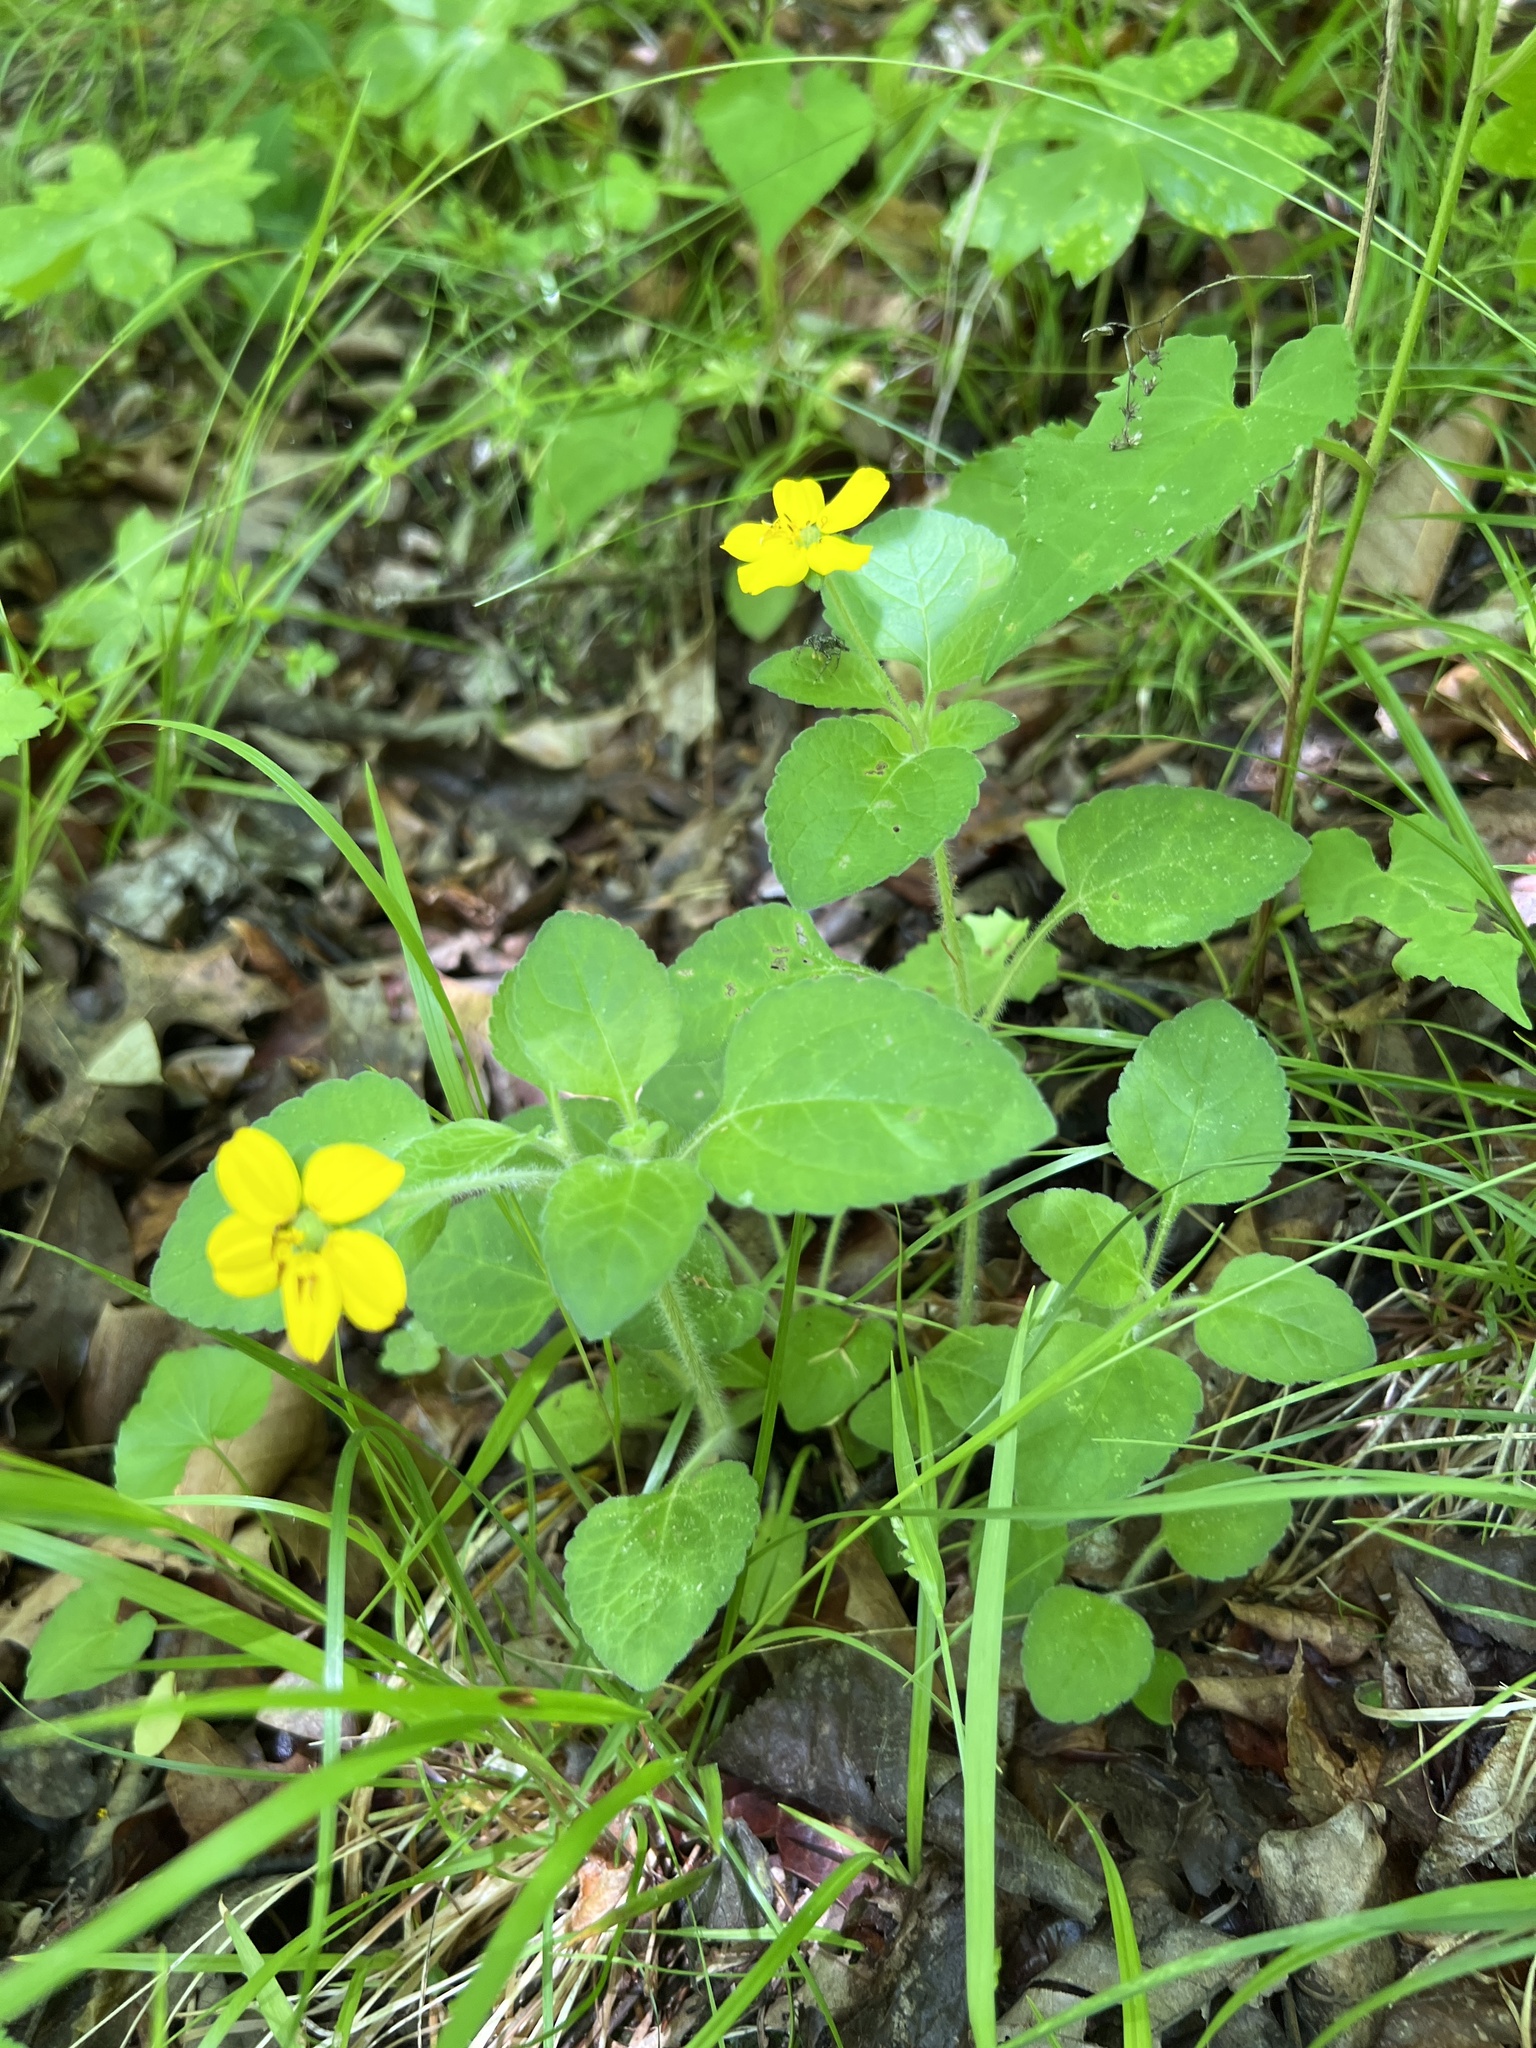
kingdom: Plantae
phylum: Tracheophyta
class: Magnoliopsida
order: Asterales
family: Asteraceae
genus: Chrysogonum
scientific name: Chrysogonum virginianum
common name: Golden-knee
